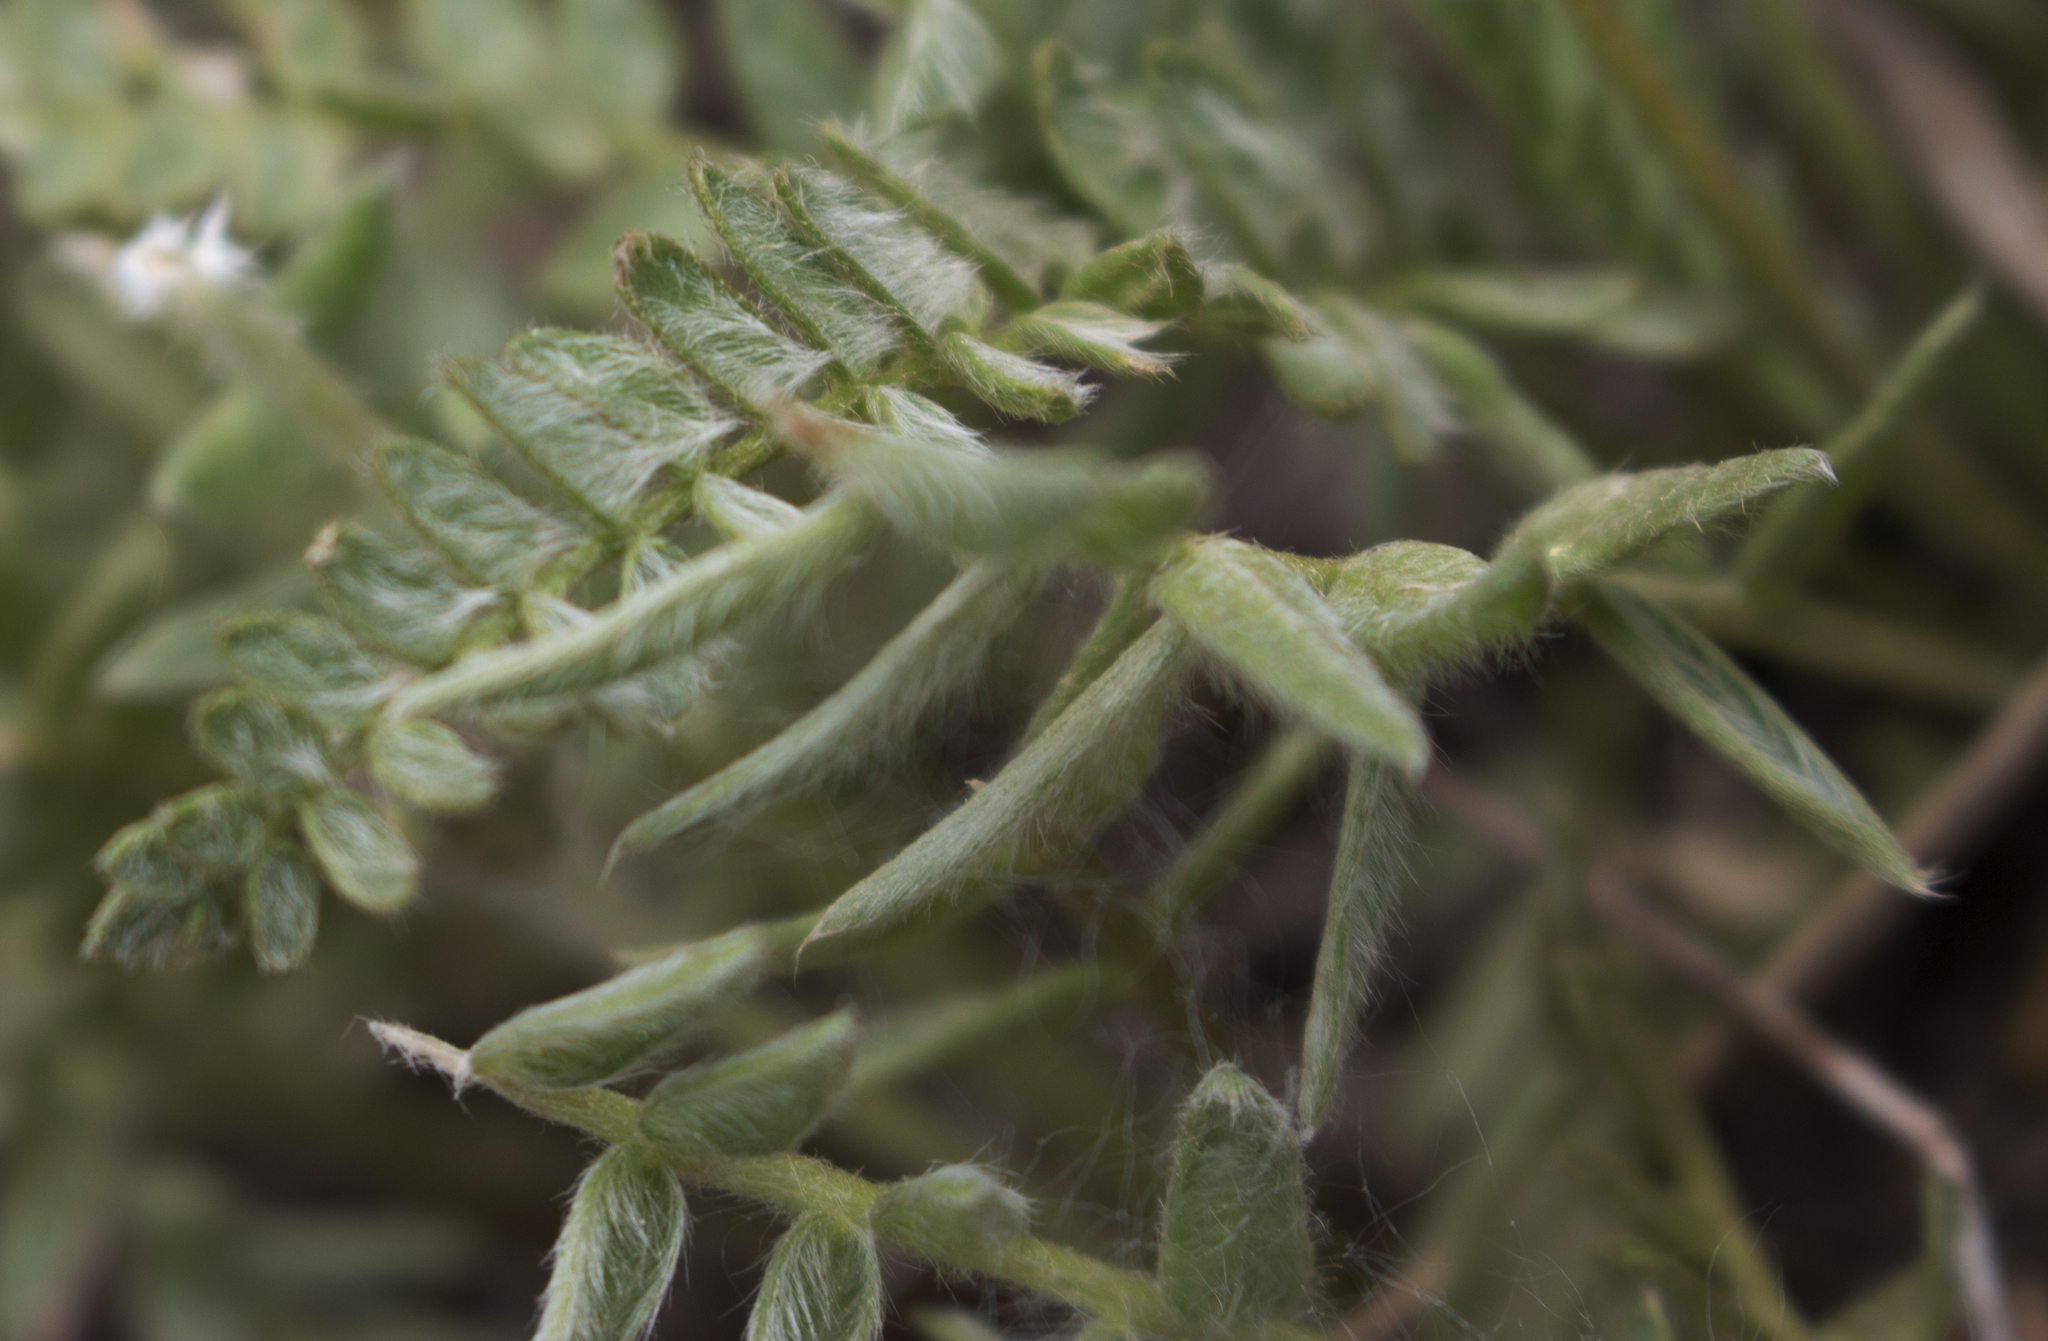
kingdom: Plantae
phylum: Tracheophyta
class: Magnoliopsida
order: Fabales
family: Fabaceae
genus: Oxytropis
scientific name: Oxytropis campestris
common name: Field locoweed
